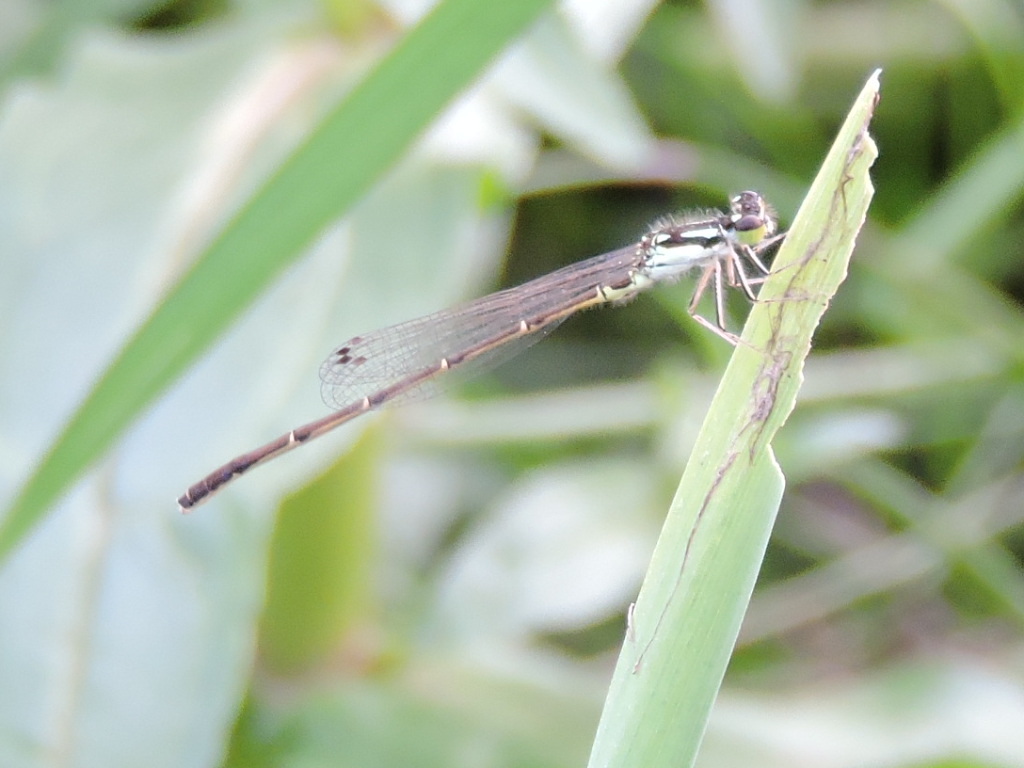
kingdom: Animalia
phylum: Arthropoda
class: Insecta
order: Odonata
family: Coenagrionidae
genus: Ischnura
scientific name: Ischnura posita
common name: Fragile forktail
